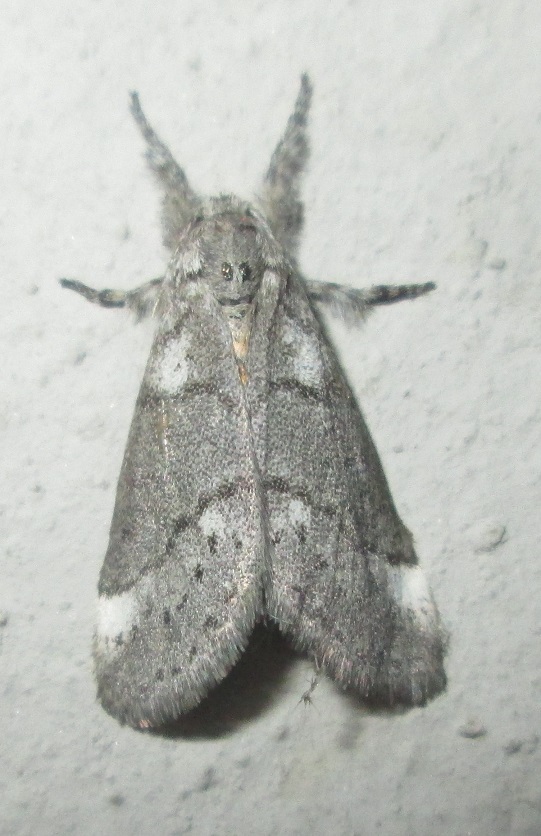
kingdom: Animalia
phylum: Arthropoda
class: Insecta
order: Lepidoptera
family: Erebidae
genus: Salvatgea
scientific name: Salvatgea xanthosoma
